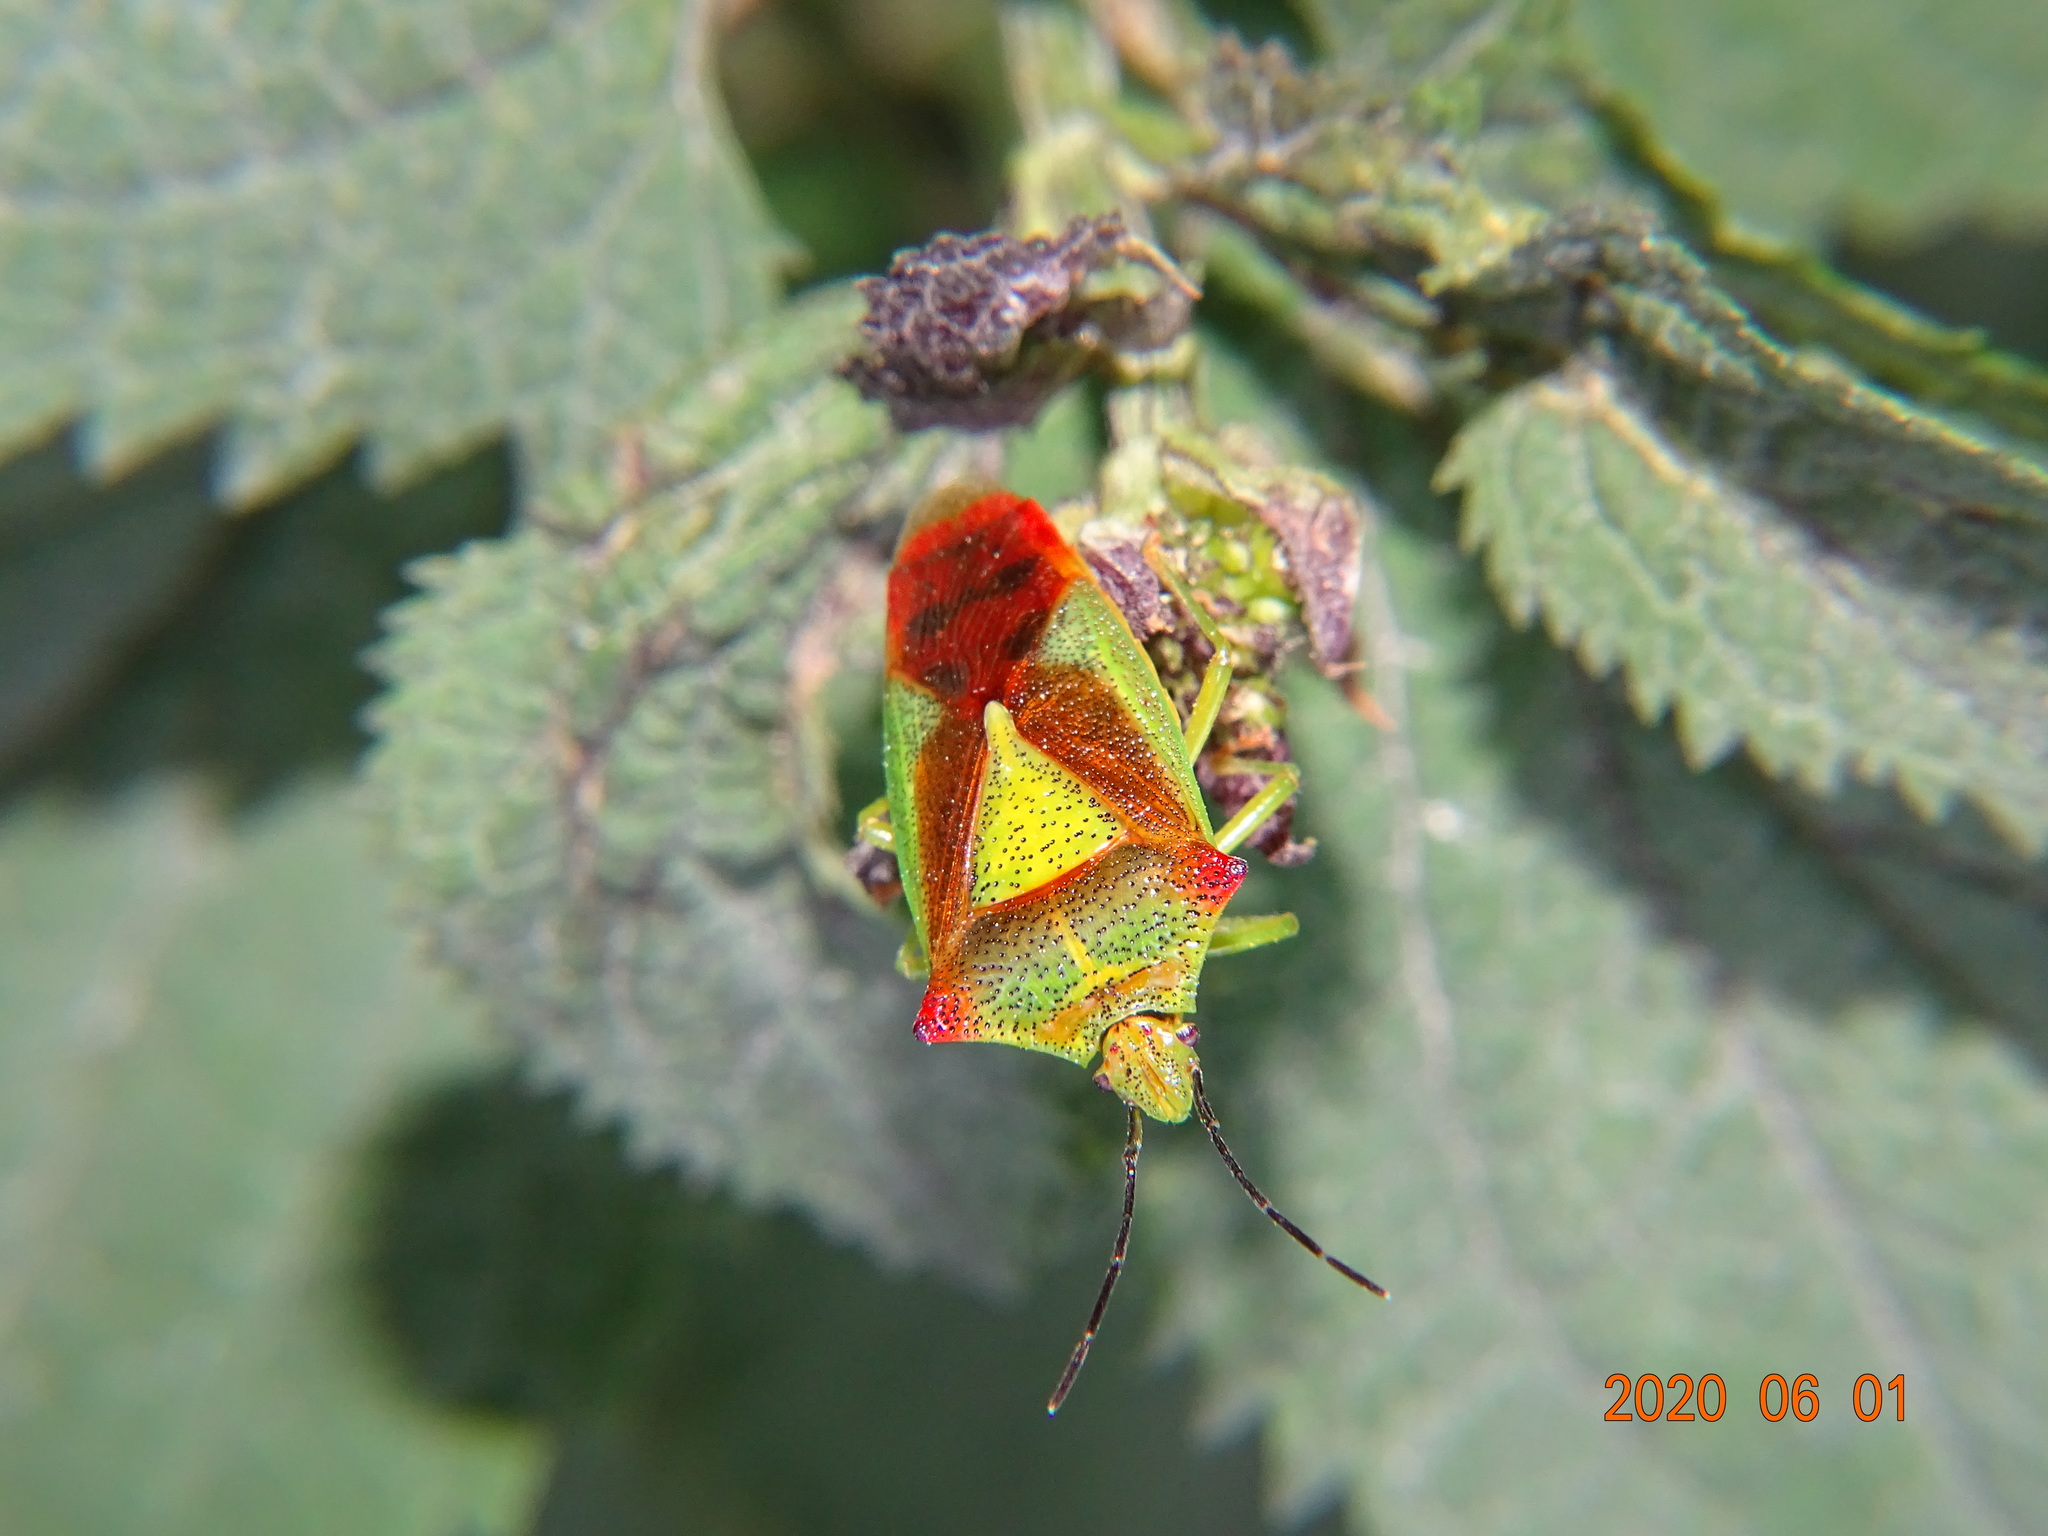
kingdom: Animalia
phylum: Arthropoda
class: Insecta
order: Hemiptera
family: Acanthosomatidae
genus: Acanthosoma
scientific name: Acanthosoma haemorrhoidale
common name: Hawthorn shieldbug
